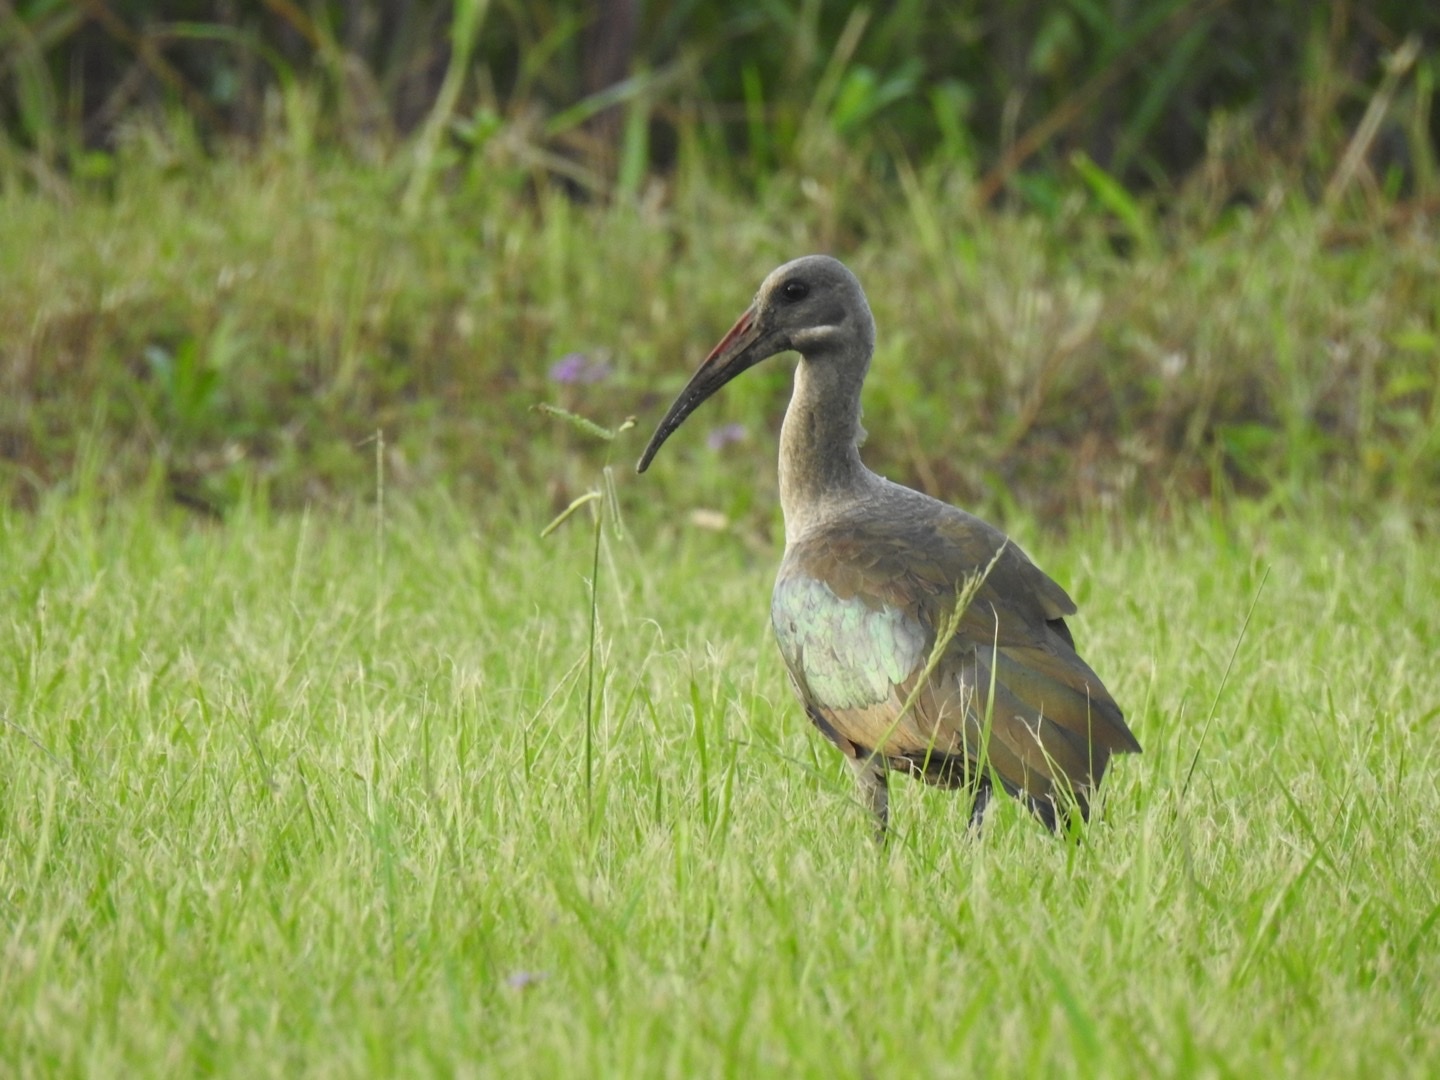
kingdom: Animalia
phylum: Chordata
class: Aves
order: Pelecaniformes
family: Threskiornithidae
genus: Bostrychia
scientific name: Bostrychia hagedash
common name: Hadada ibis
